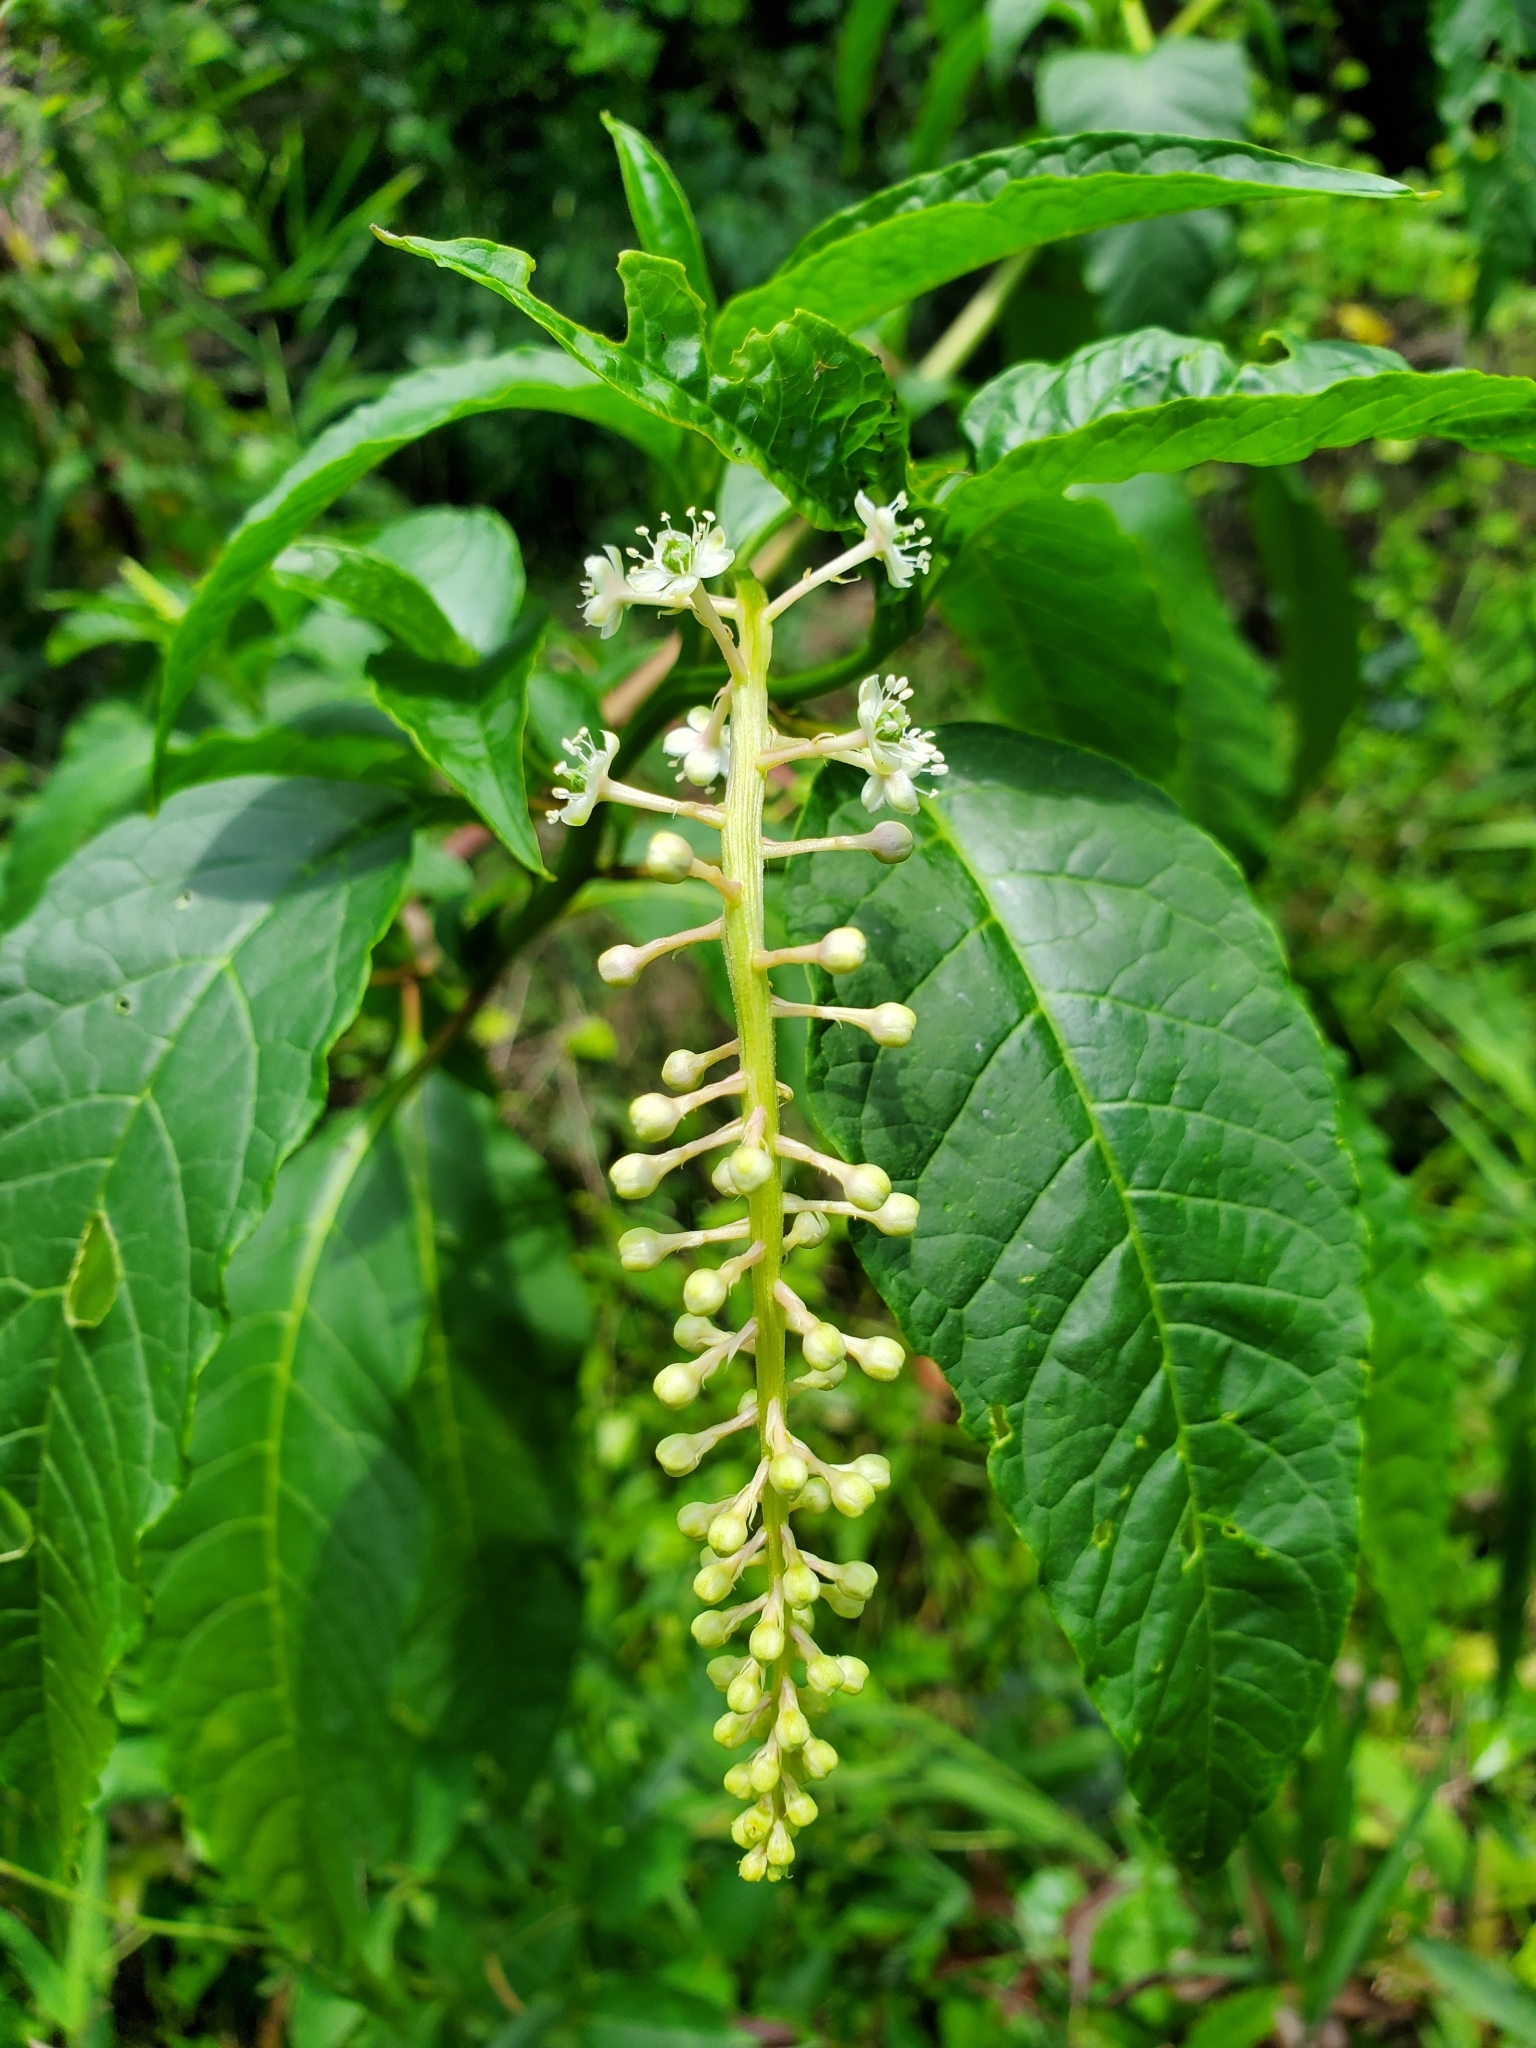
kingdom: Plantae
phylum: Tracheophyta
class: Magnoliopsida
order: Caryophyllales
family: Phytolaccaceae
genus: Phytolacca
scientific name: Phytolacca americana
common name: American pokeweed
